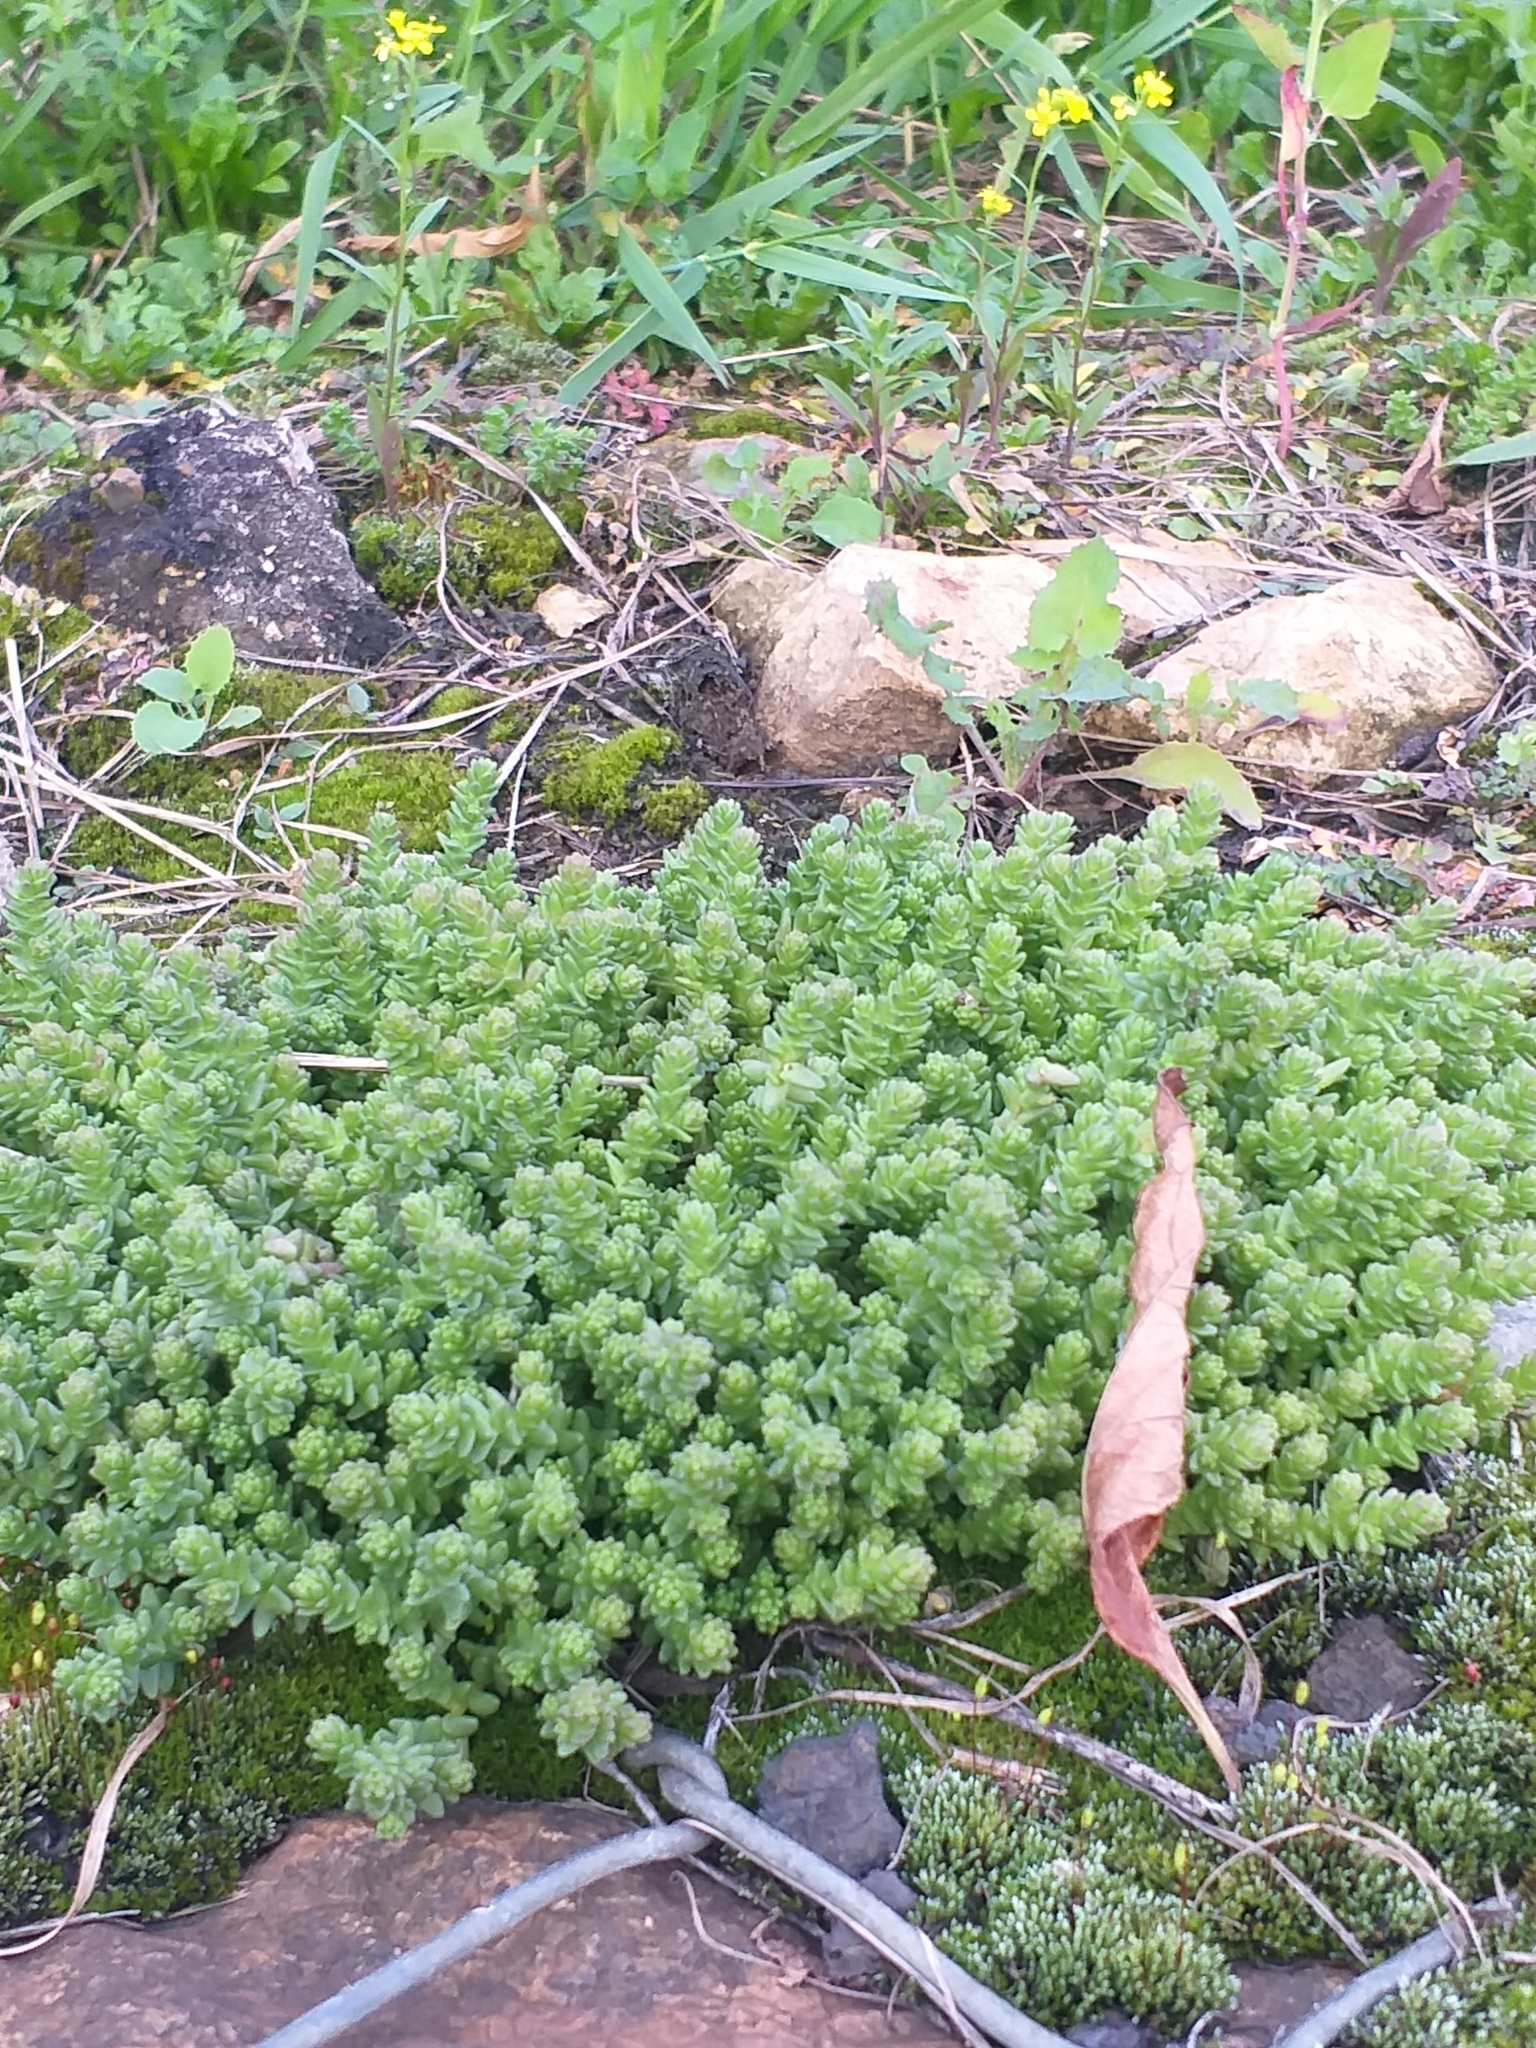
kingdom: Plantae
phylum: Tracheophyta
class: Magnoliopsida
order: Saxifragales
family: Crassulaceae
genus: Sedum
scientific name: Sedum acre
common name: Biting stonecrop
